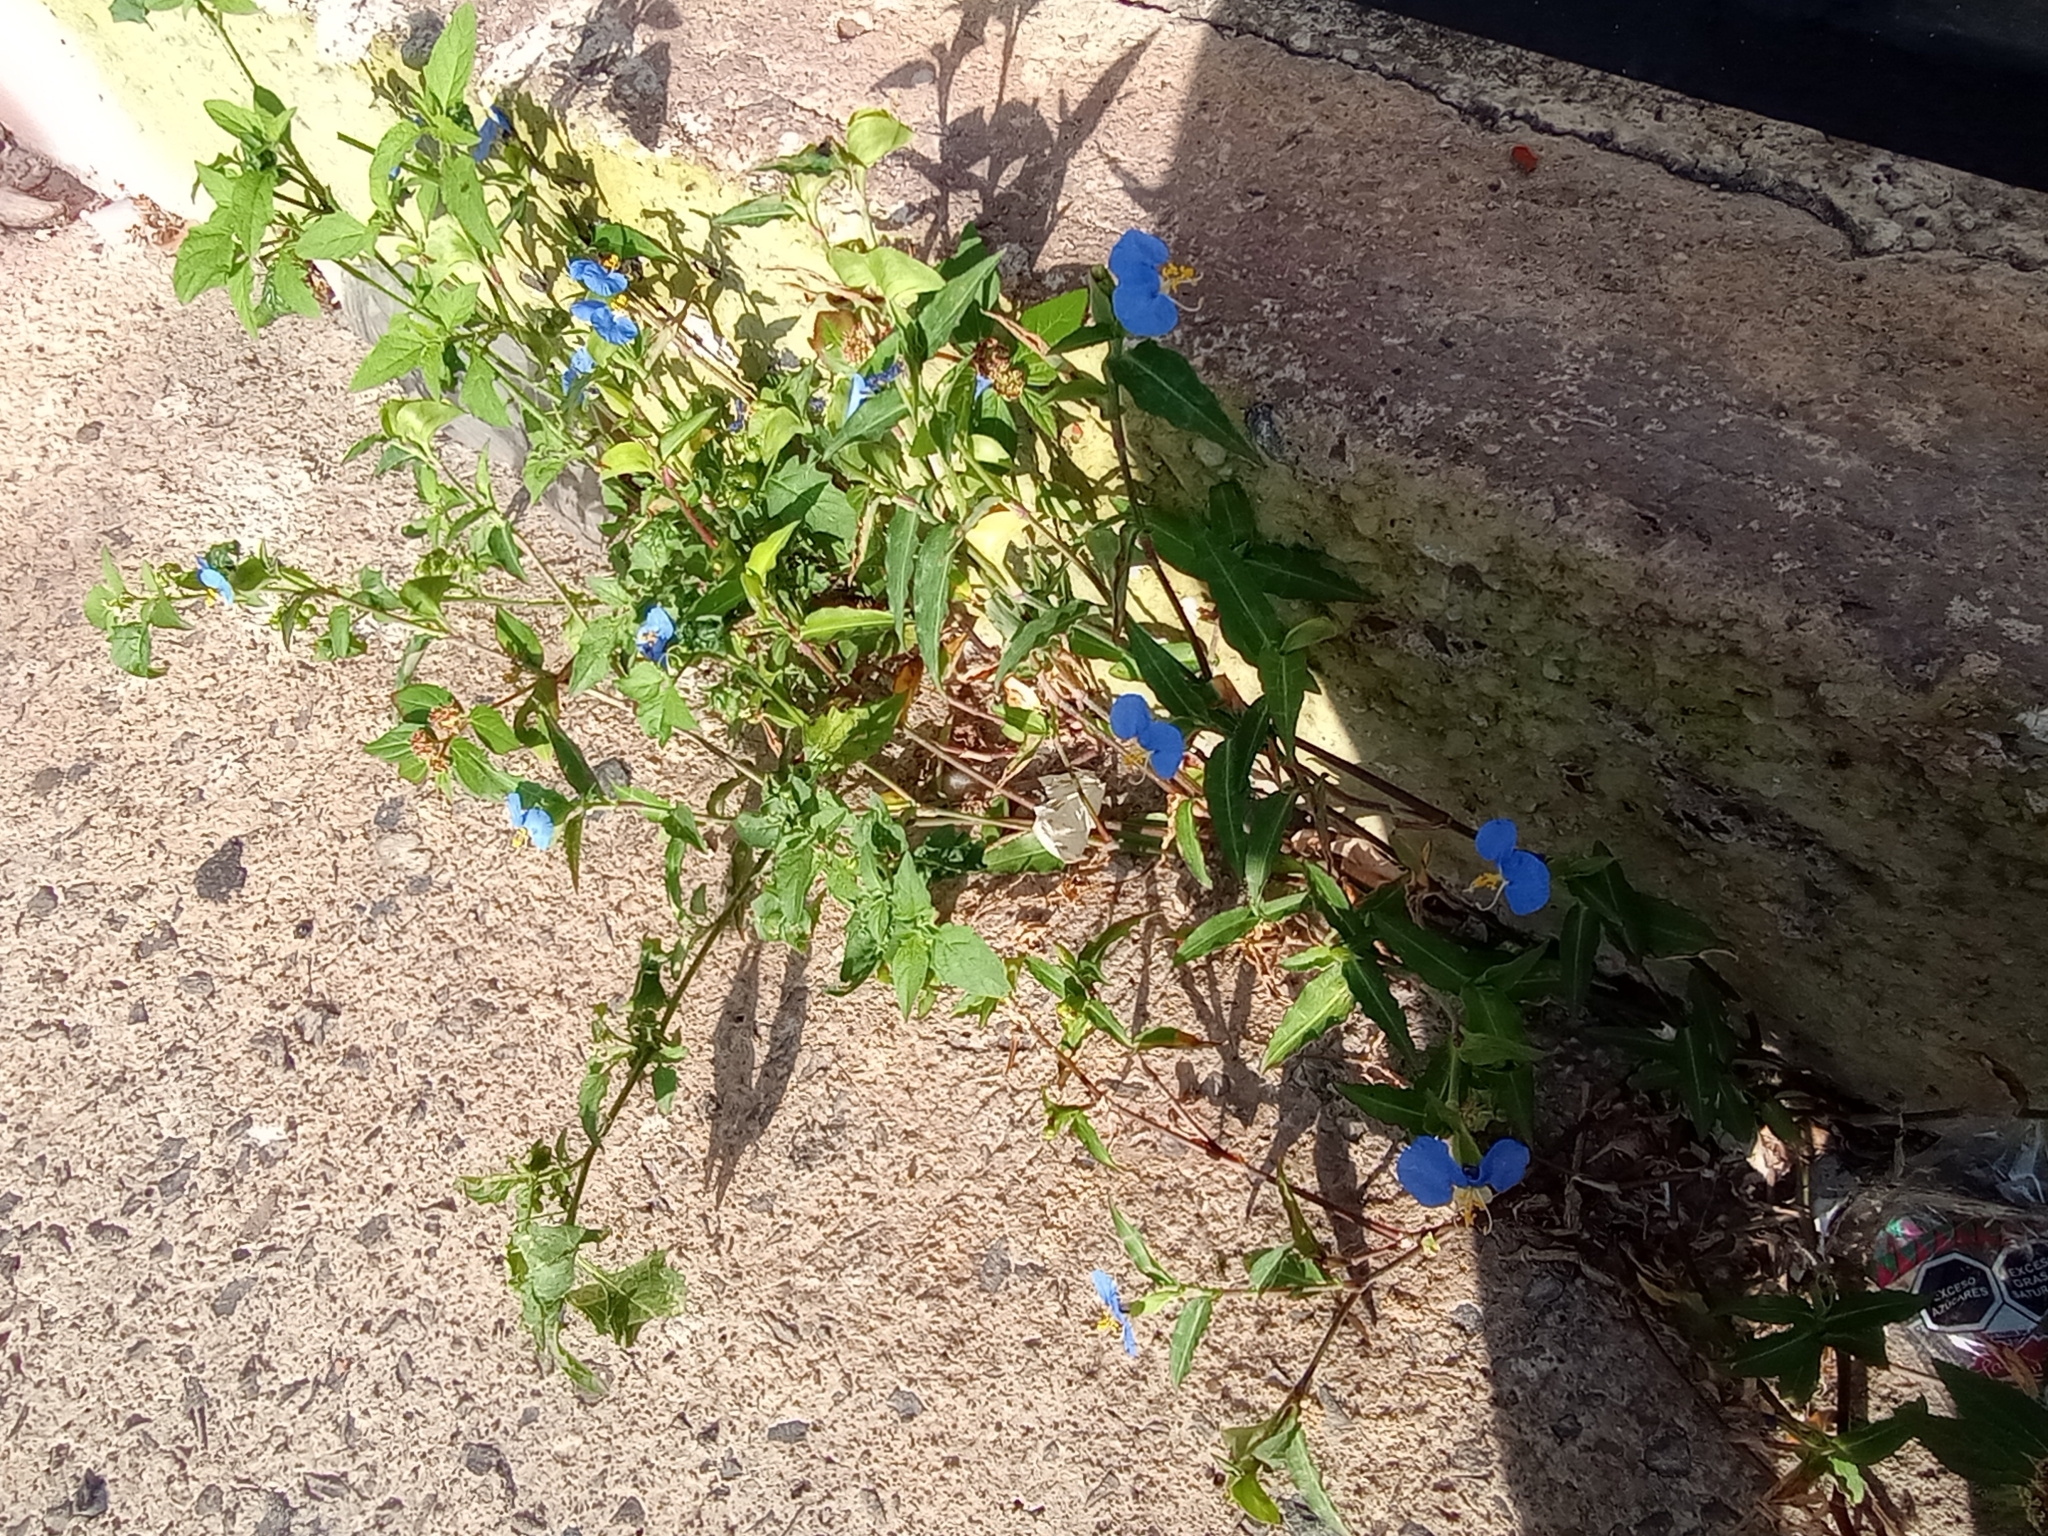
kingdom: Plantae
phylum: Tracheophyta
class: Liliopsida
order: Commelinales
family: Commelinaceae
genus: Commelina
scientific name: Commelina erecta
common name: Blousel blommetjie
